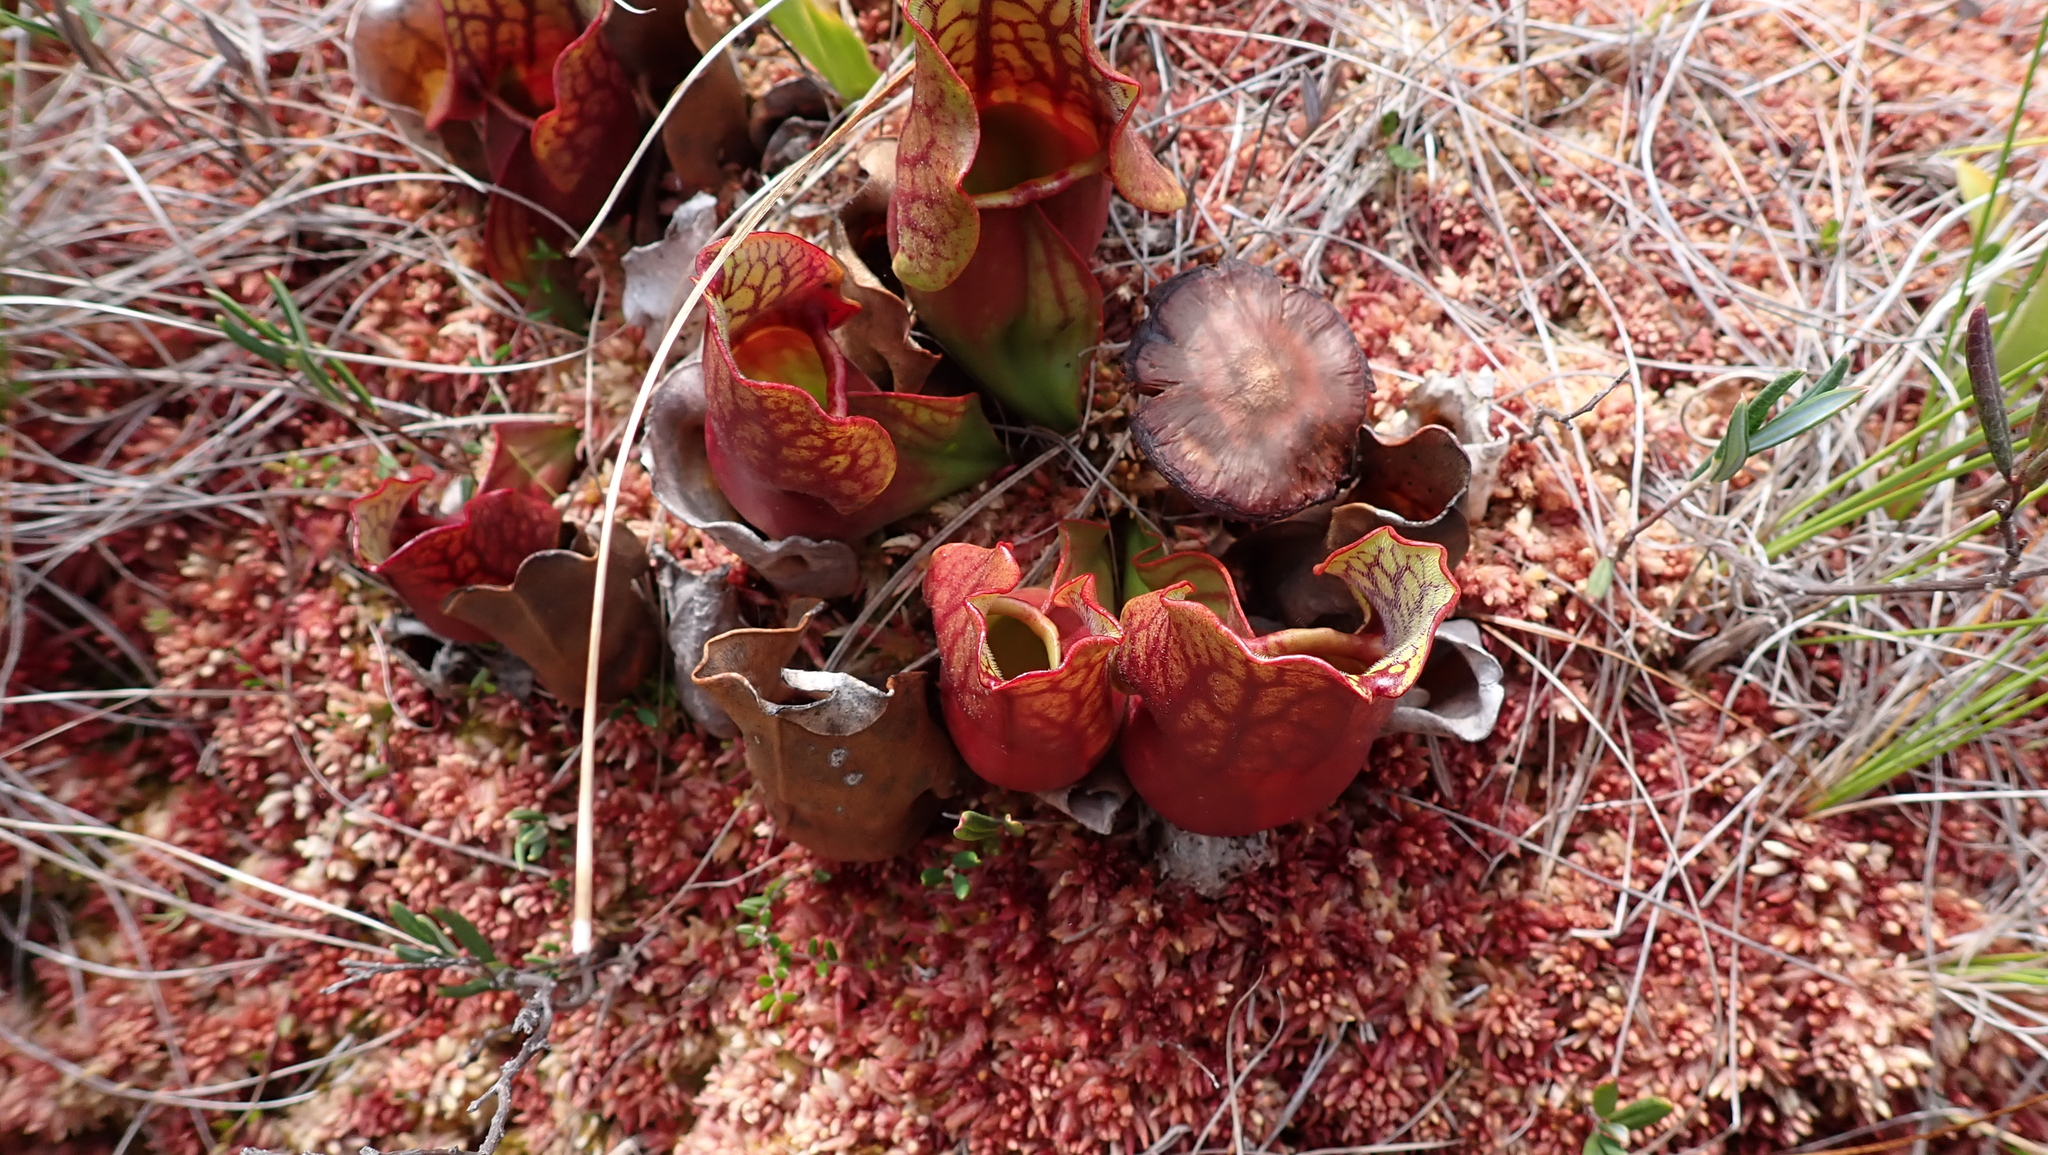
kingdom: Plantae
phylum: Tracheophyta
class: Magnoliopsida
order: Ericales
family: Sarraceniaceae
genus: Sarracenia
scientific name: Sarracenia purpurea
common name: Pitcherplant
